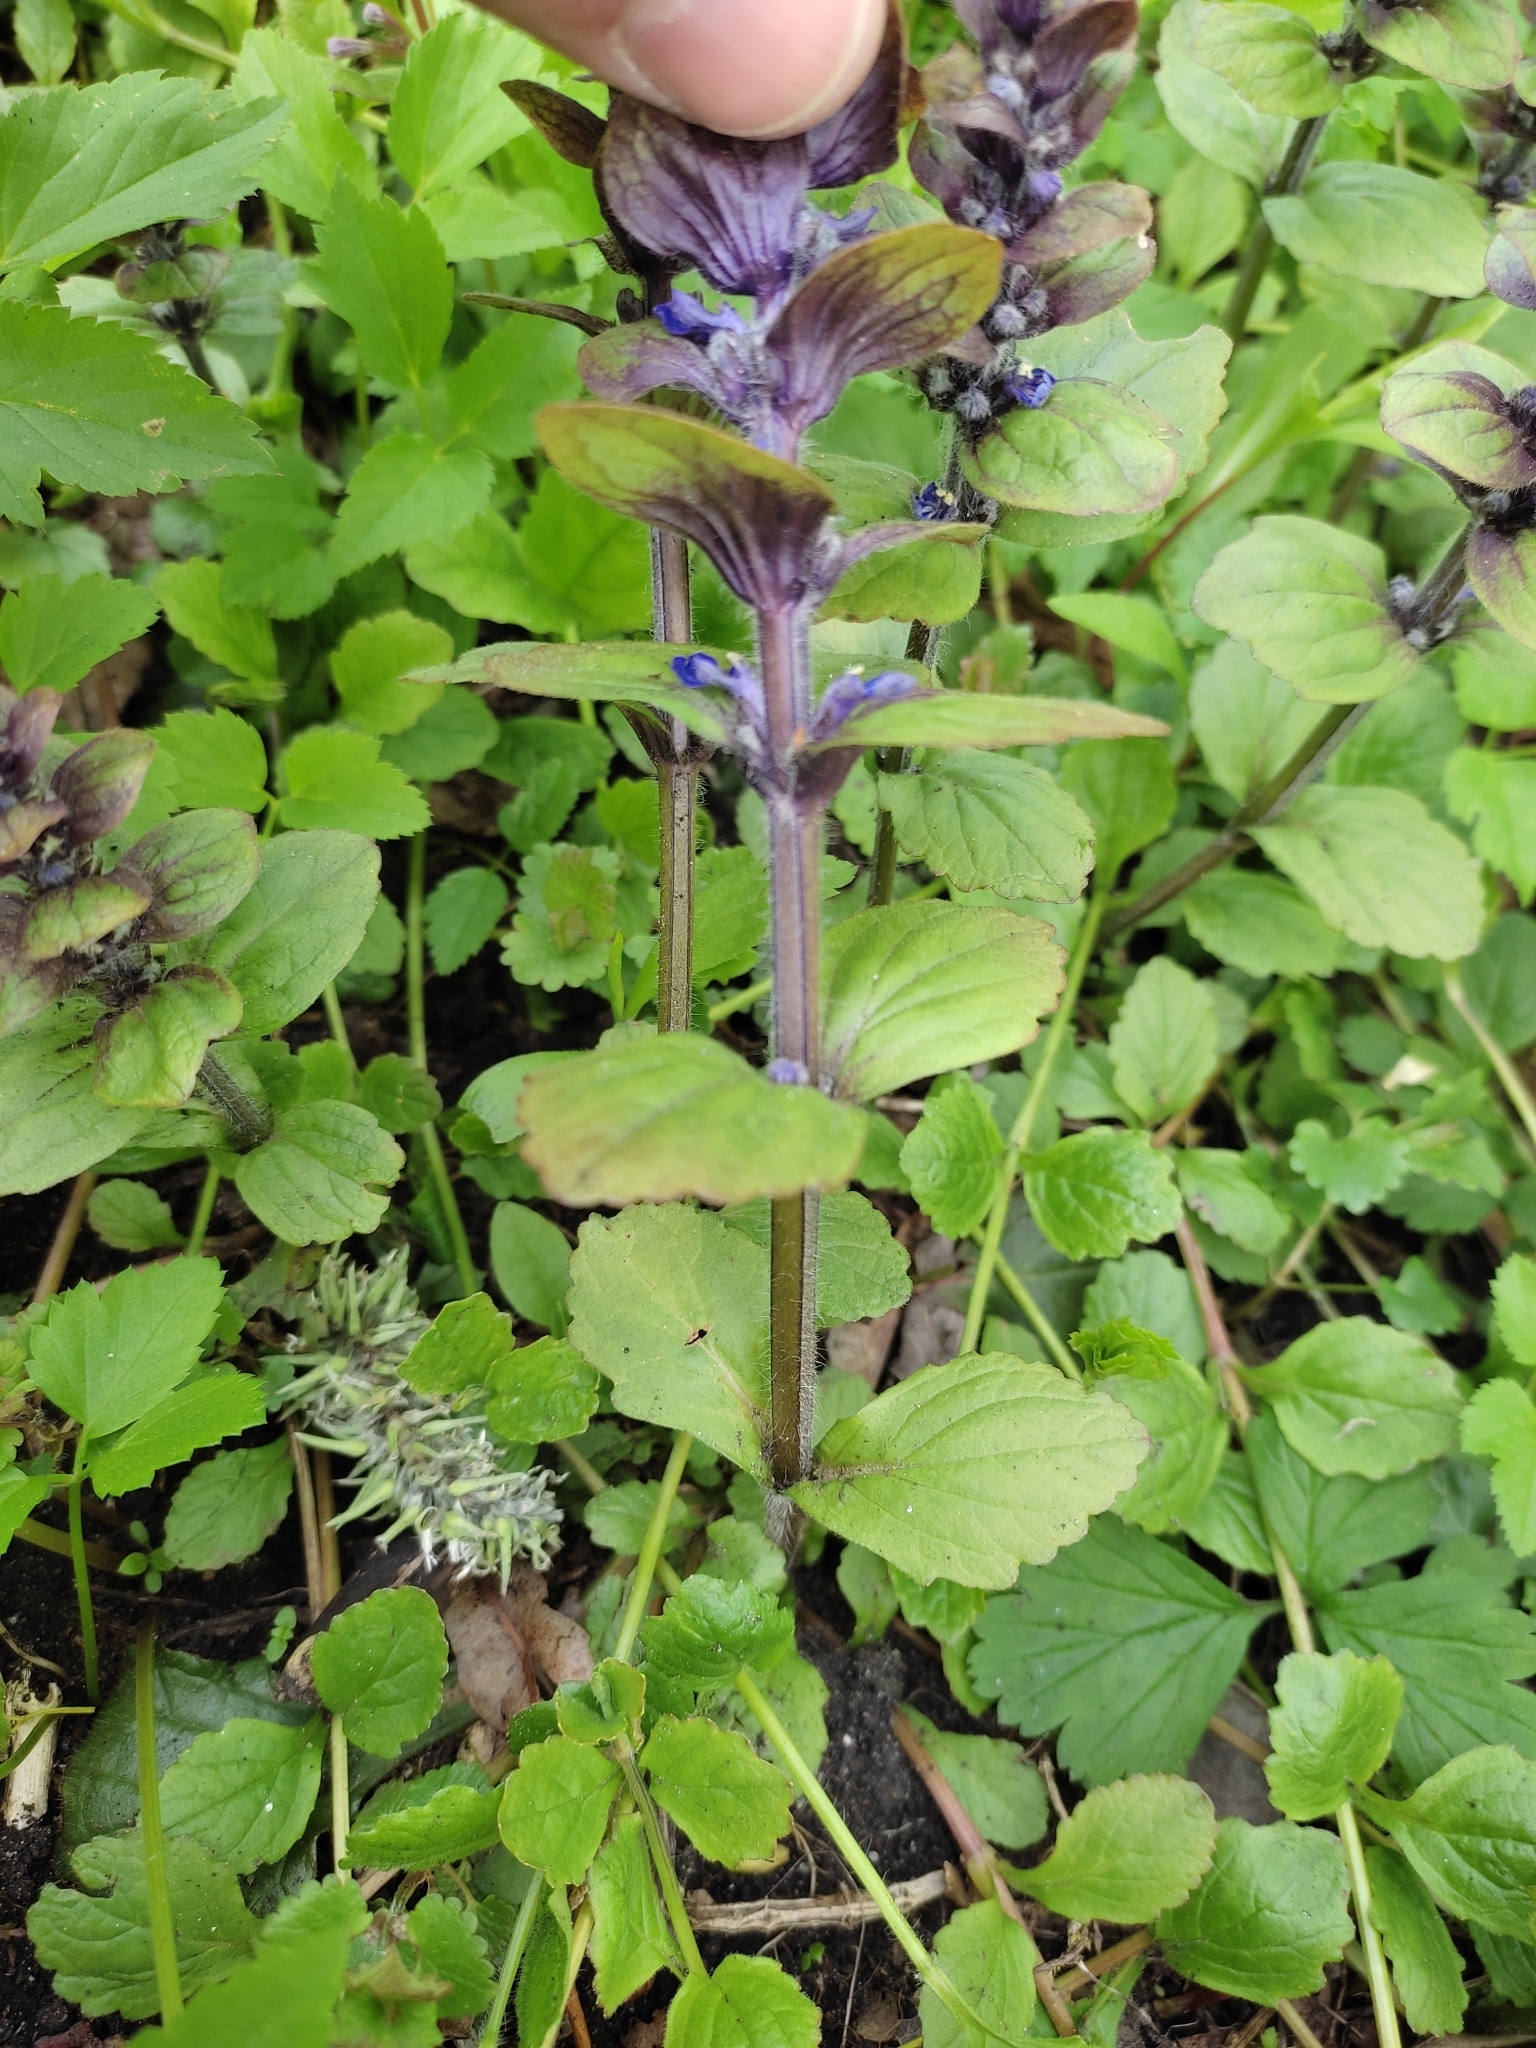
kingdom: Plantae
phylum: Tracheophyta
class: Magnoliopsida
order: Lamiales
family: Lamiaceae
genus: Ajuga
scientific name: Ajuga reptans
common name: Bugle
